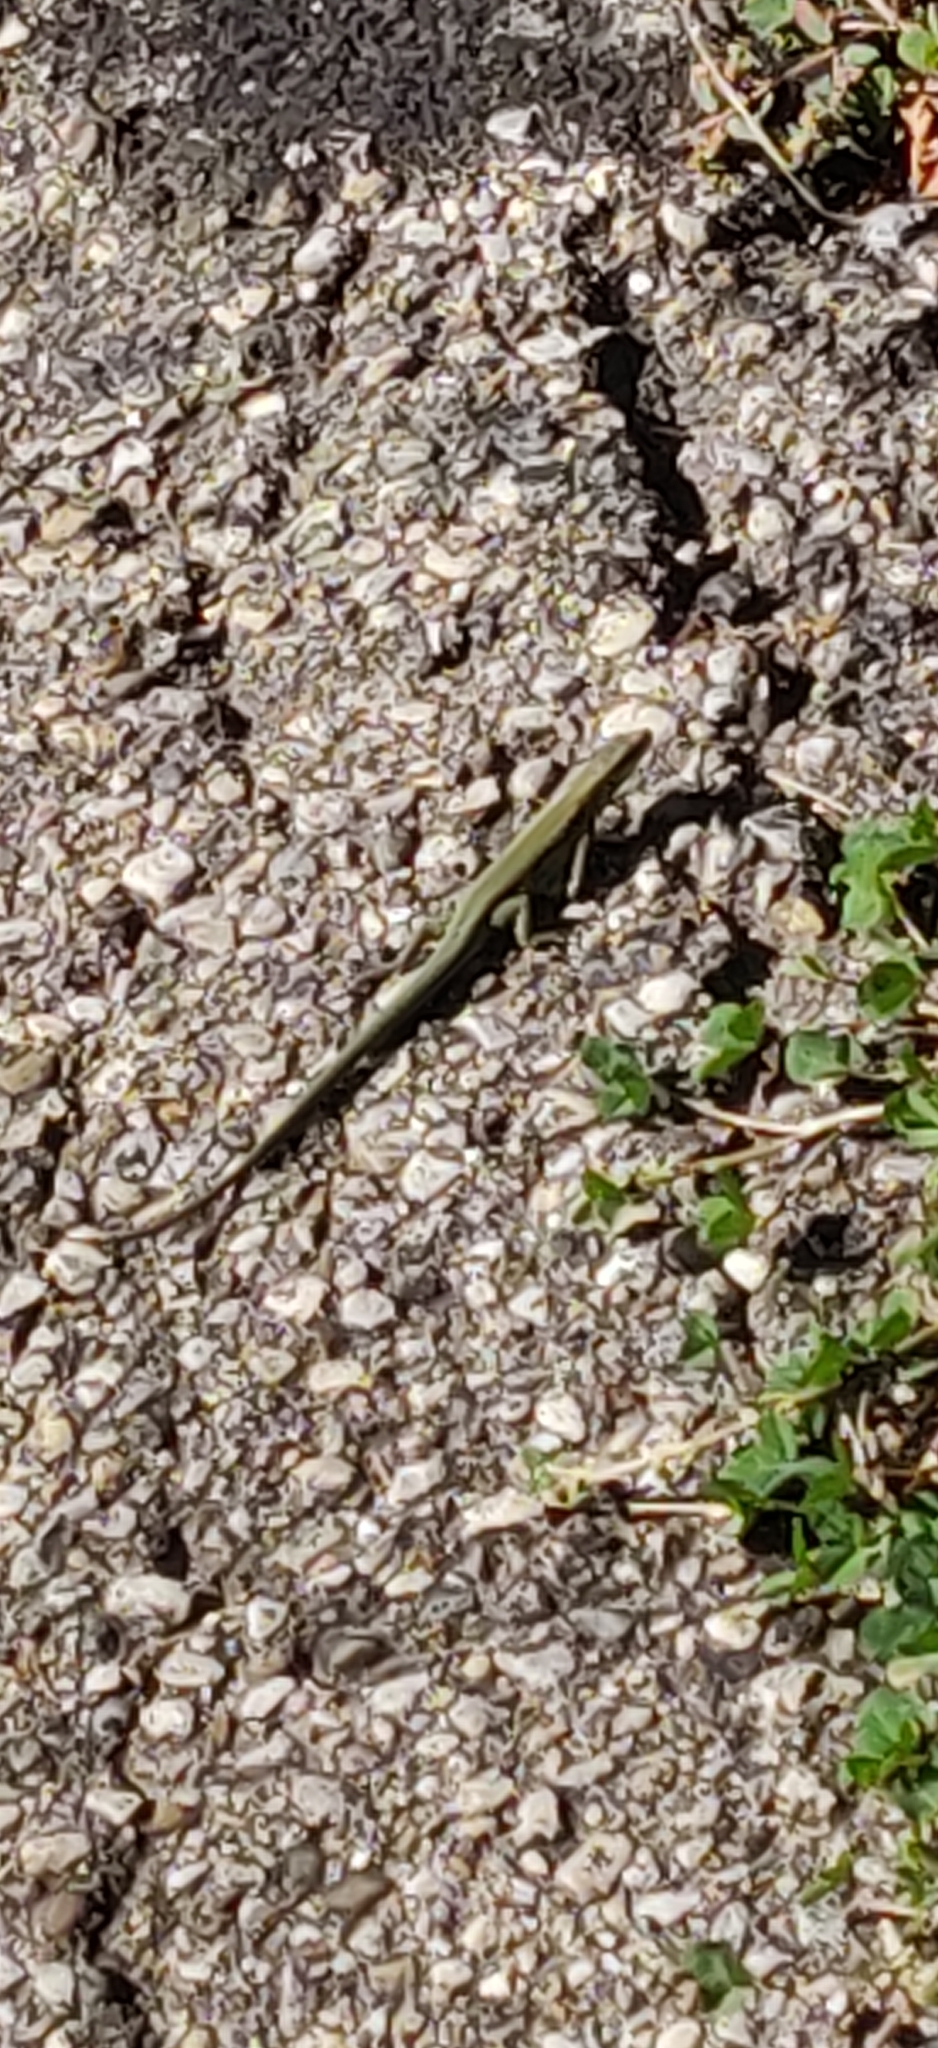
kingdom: Animalia
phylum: Chordata
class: Squamata
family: Lacertidae
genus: Podarcis
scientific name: Podarcis muralis
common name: Common wall lizard
